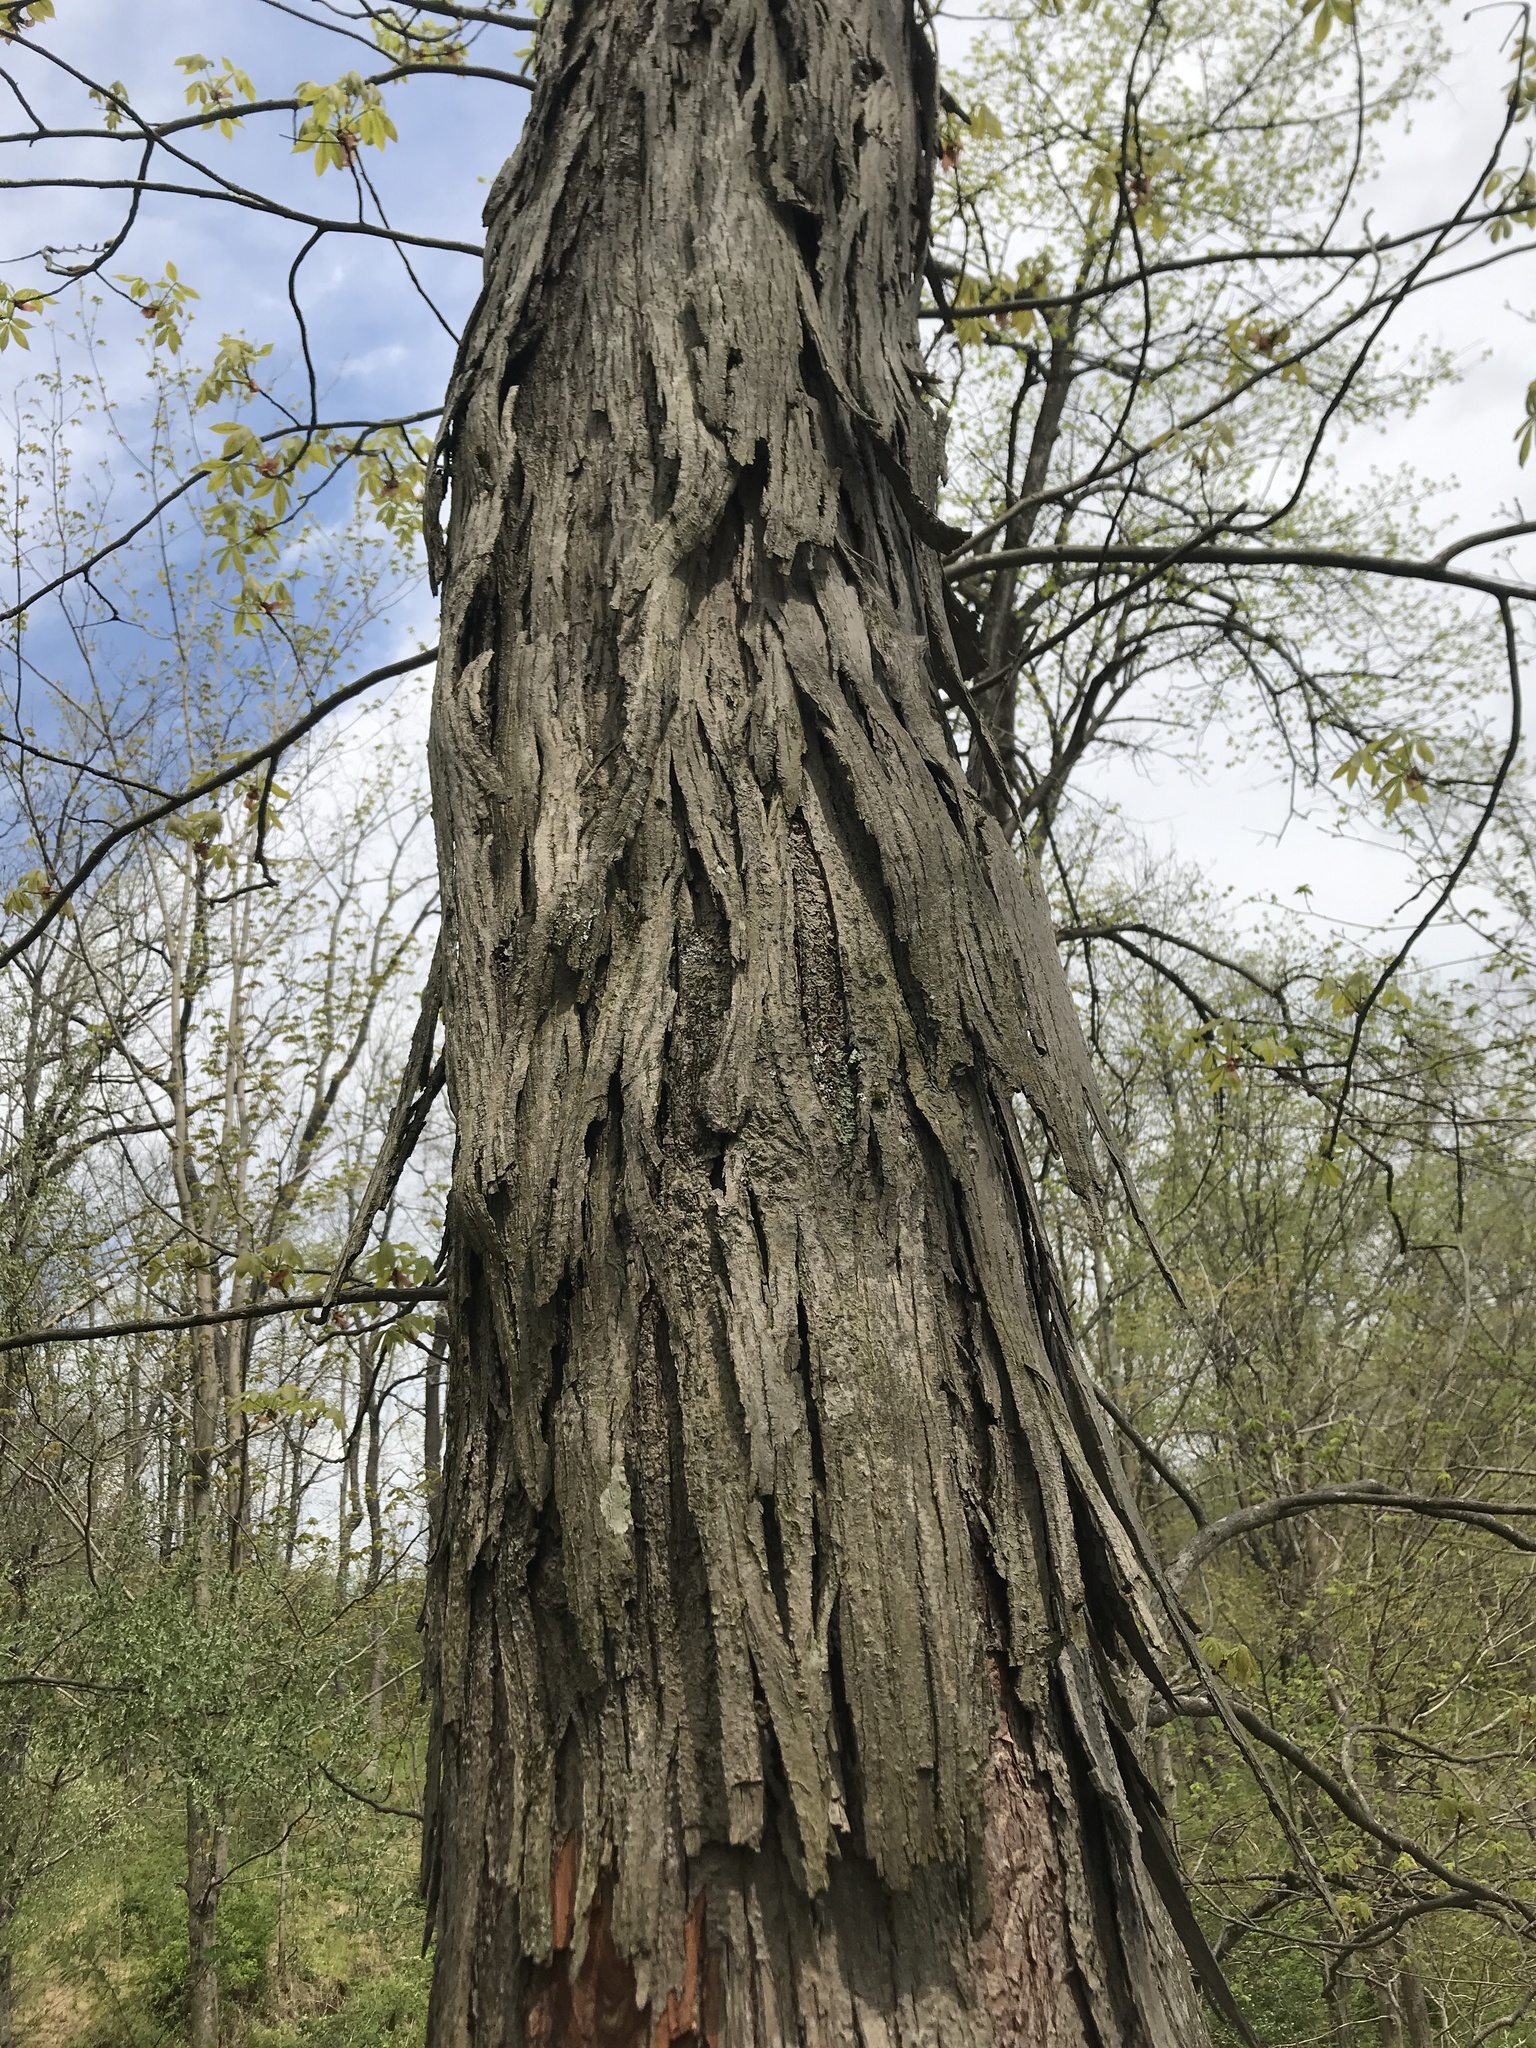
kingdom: Plantae
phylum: Tracheophyta
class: Magnoliopsida
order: Fagales
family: Juglandaceae
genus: Carya
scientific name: Carya ovata
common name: Shagbark hickory
